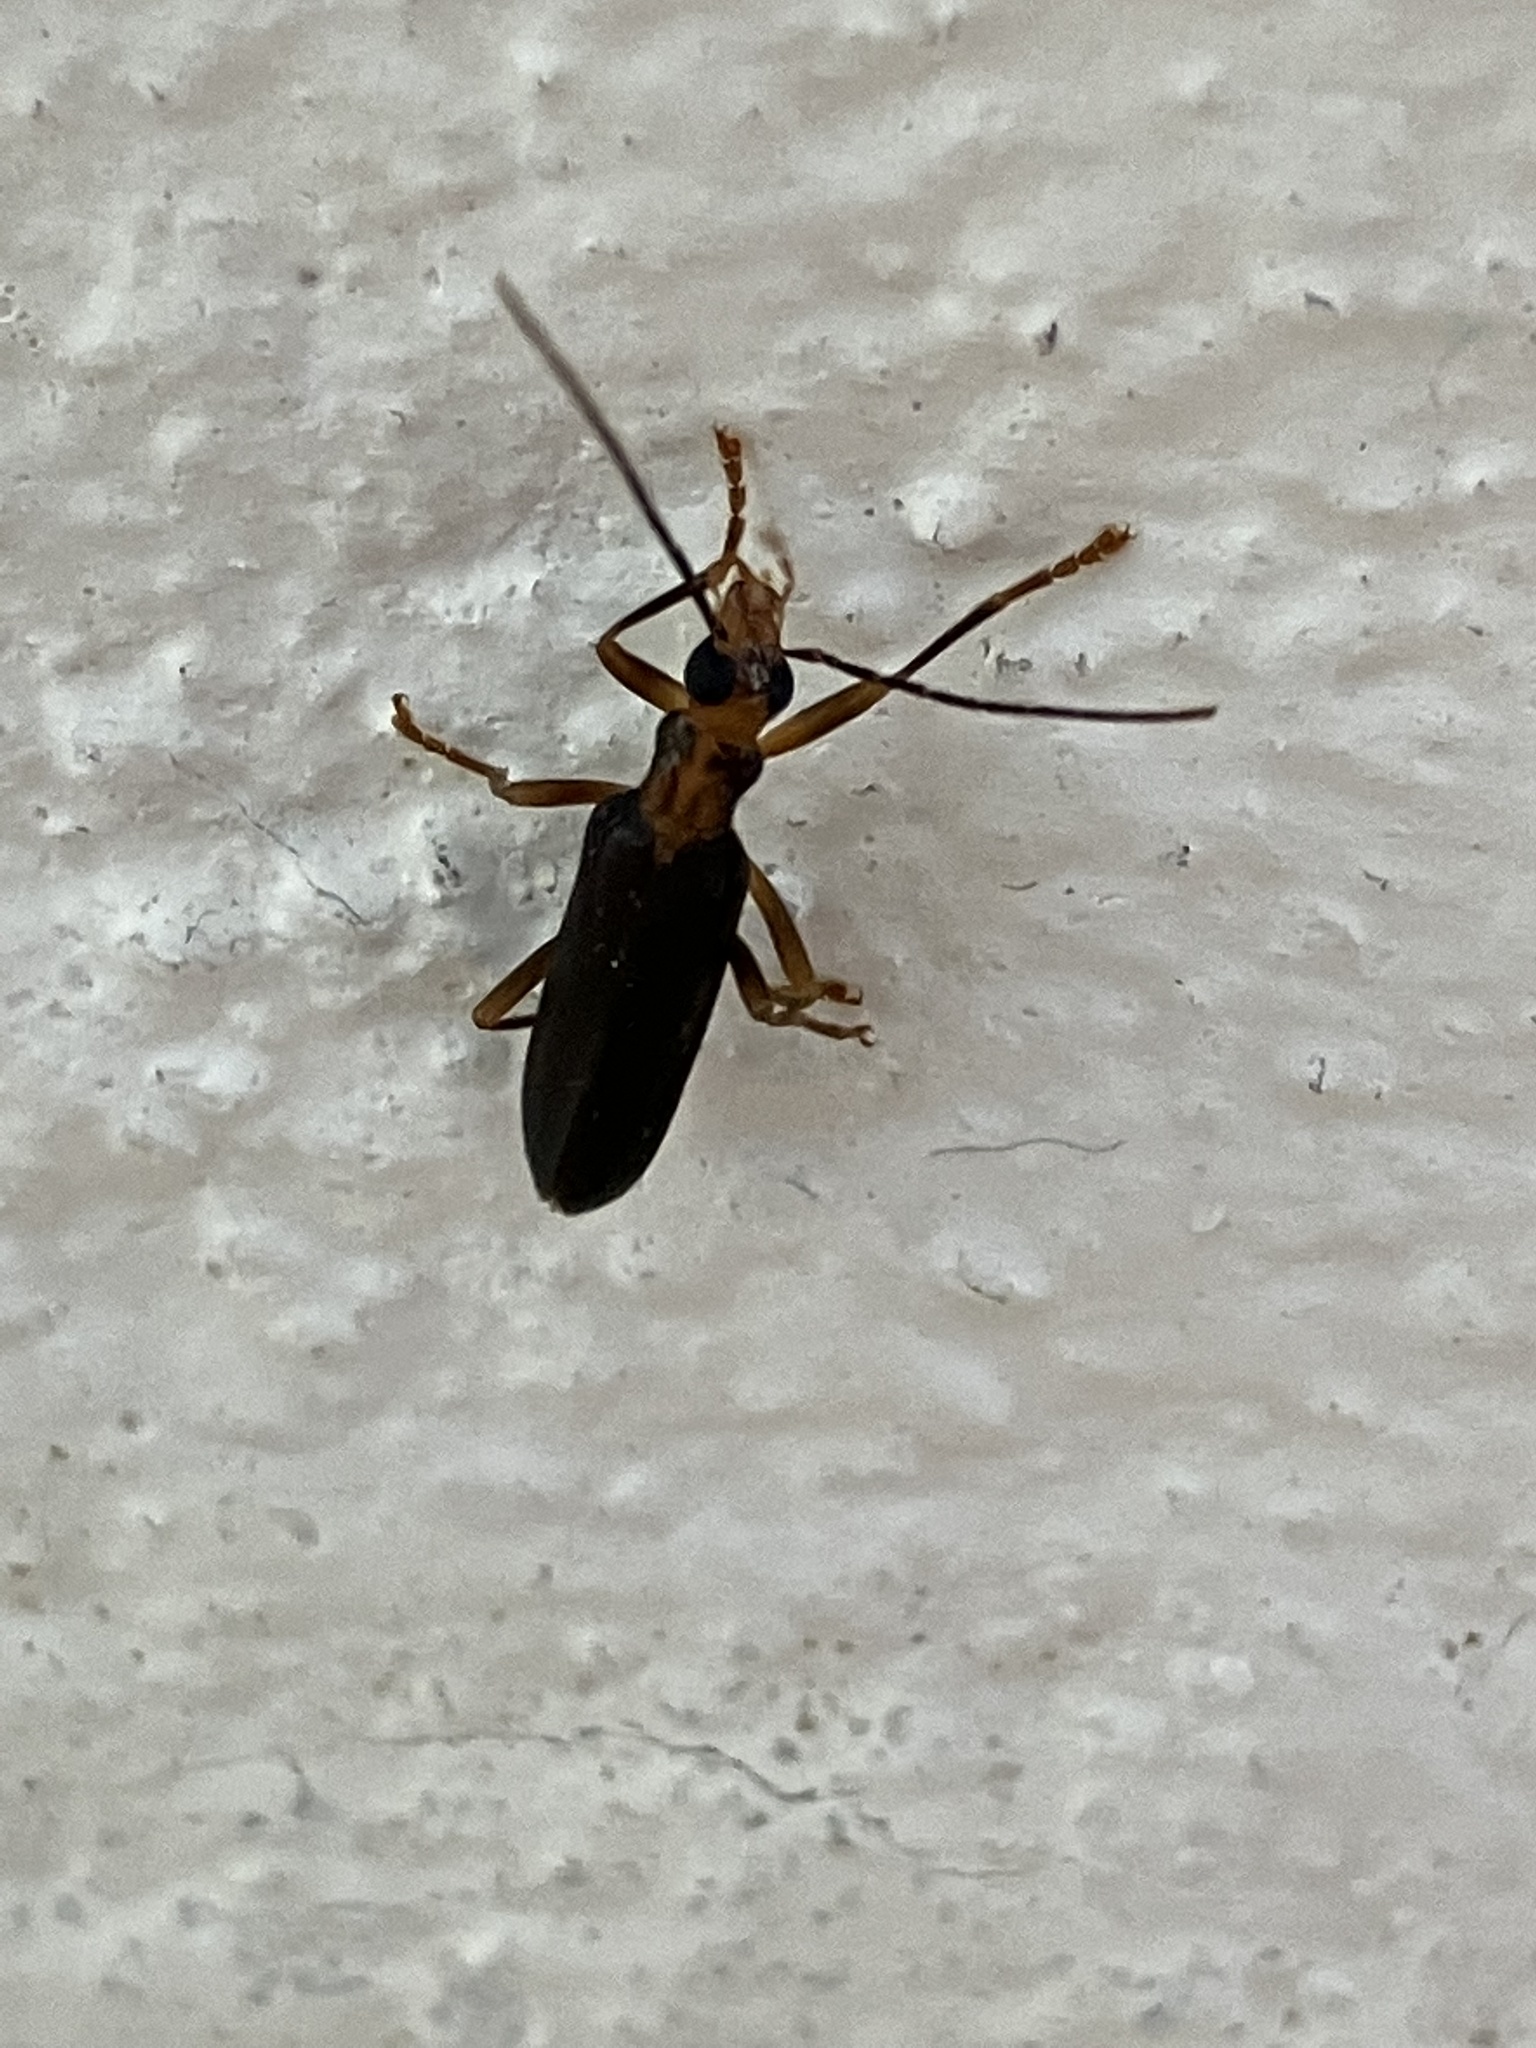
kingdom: Animalia
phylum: Arthropoda
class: Insecta
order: Coleoptera
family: Oedemeridae
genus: Nacerdes
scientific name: Nacerdes carniolica
